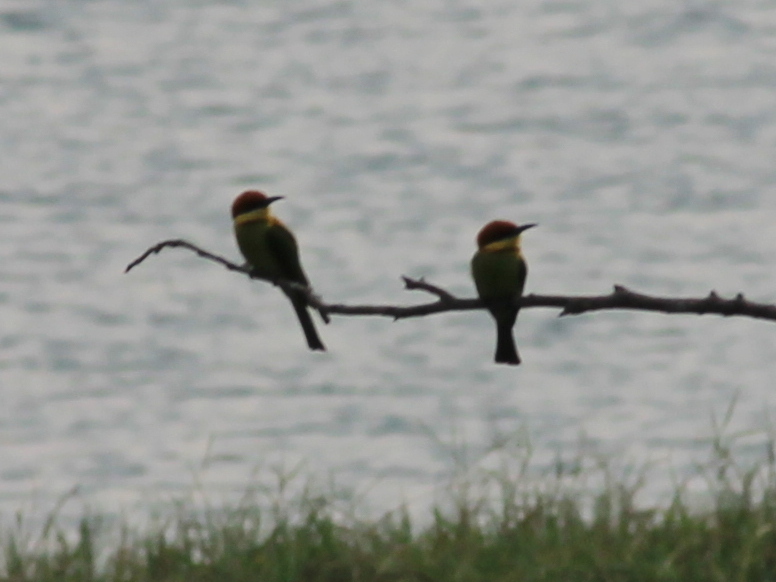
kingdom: Animalia
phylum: Chordata
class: Aves
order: Coraciiformes
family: Meropidae
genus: Merops
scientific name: Merops leschenaulti
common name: Chestnut-headed bee-eater
